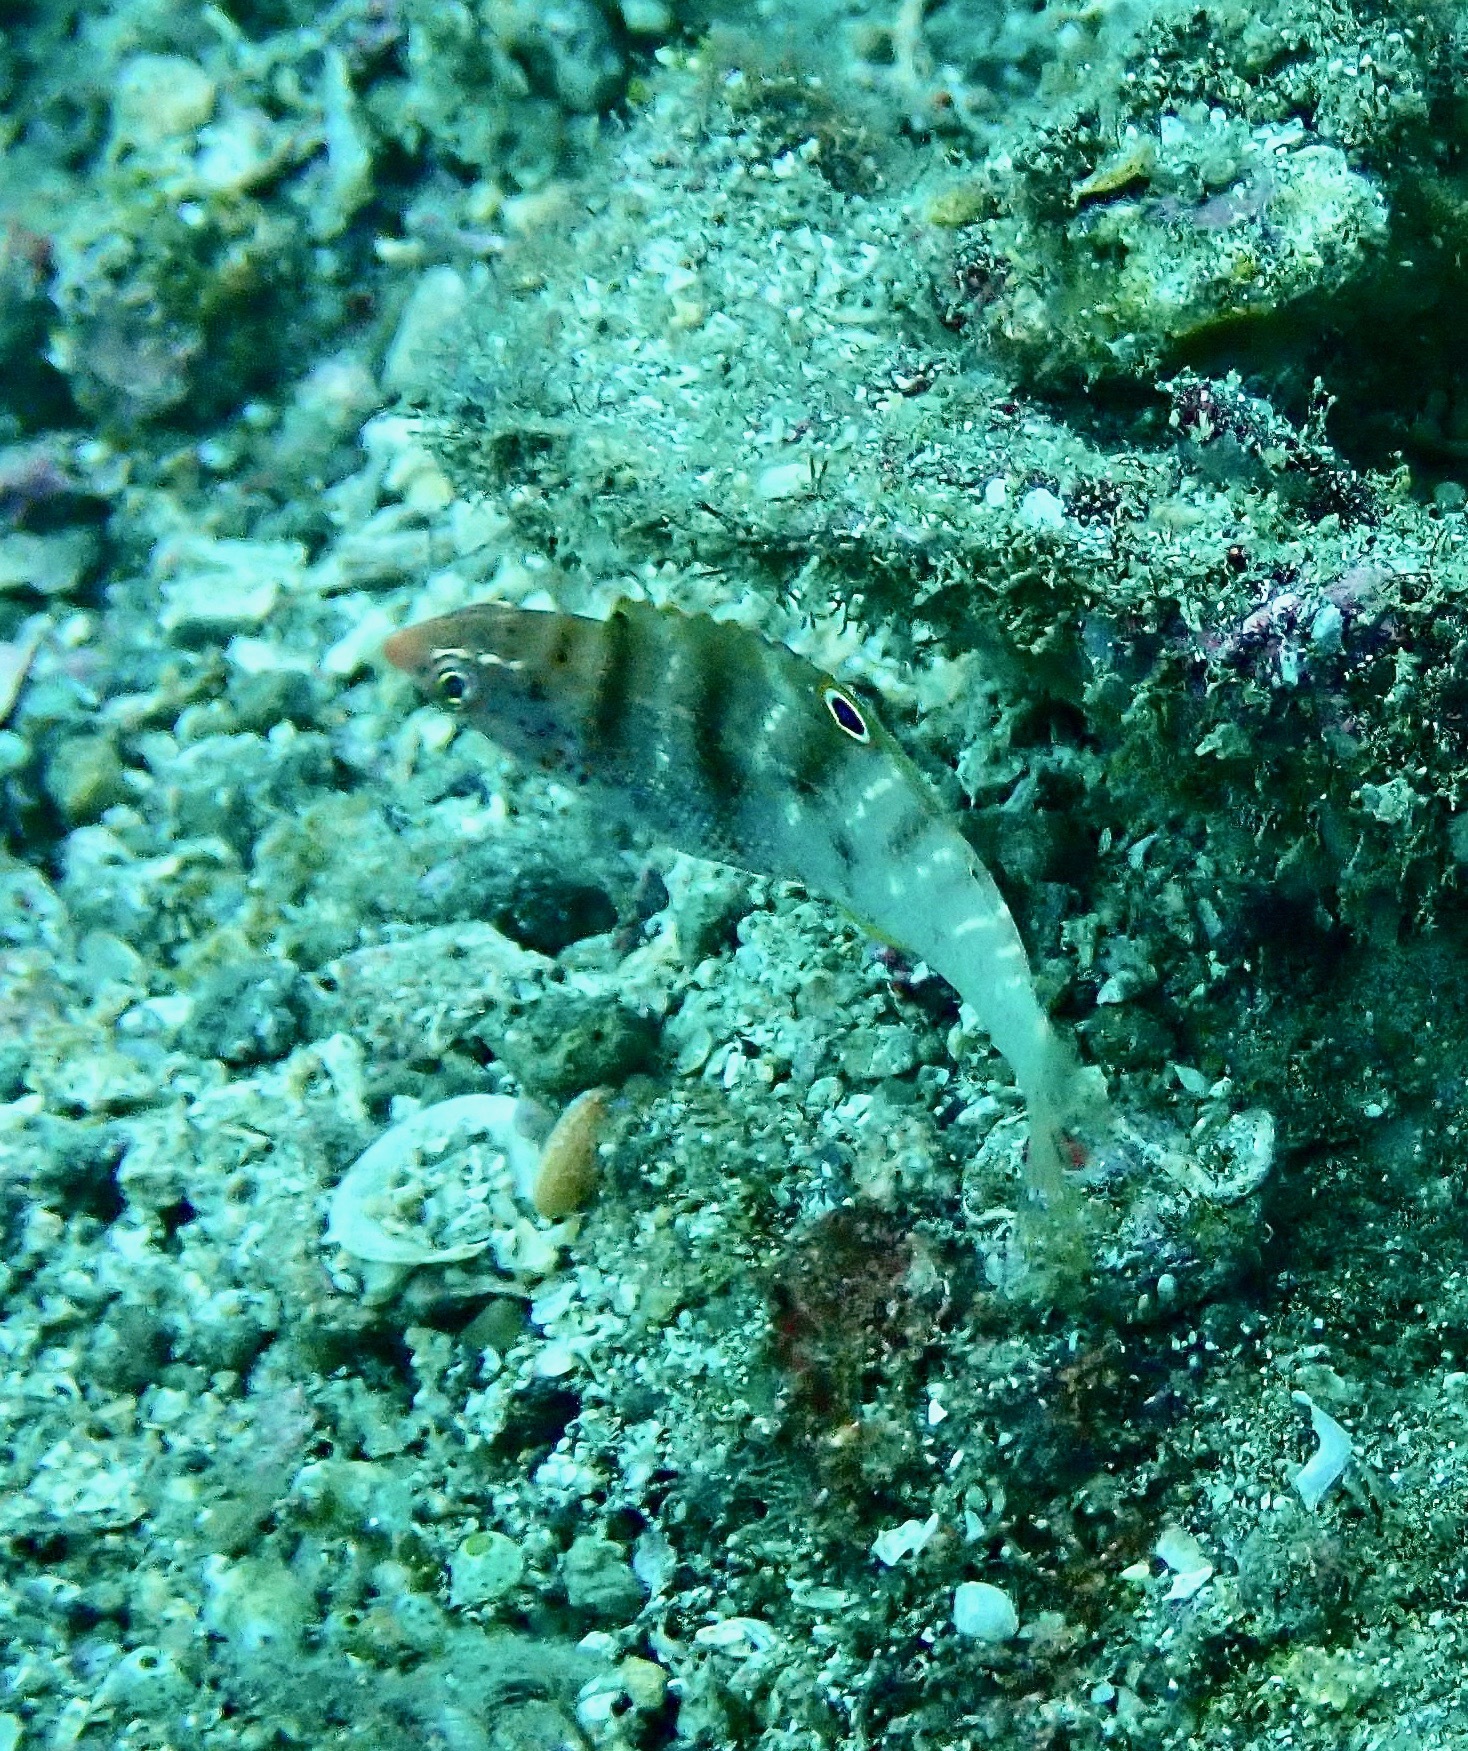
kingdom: Animalia
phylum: Chordata
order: Perciformes
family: Labridae
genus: Coris
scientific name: Coris batuensis
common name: Batu coris
